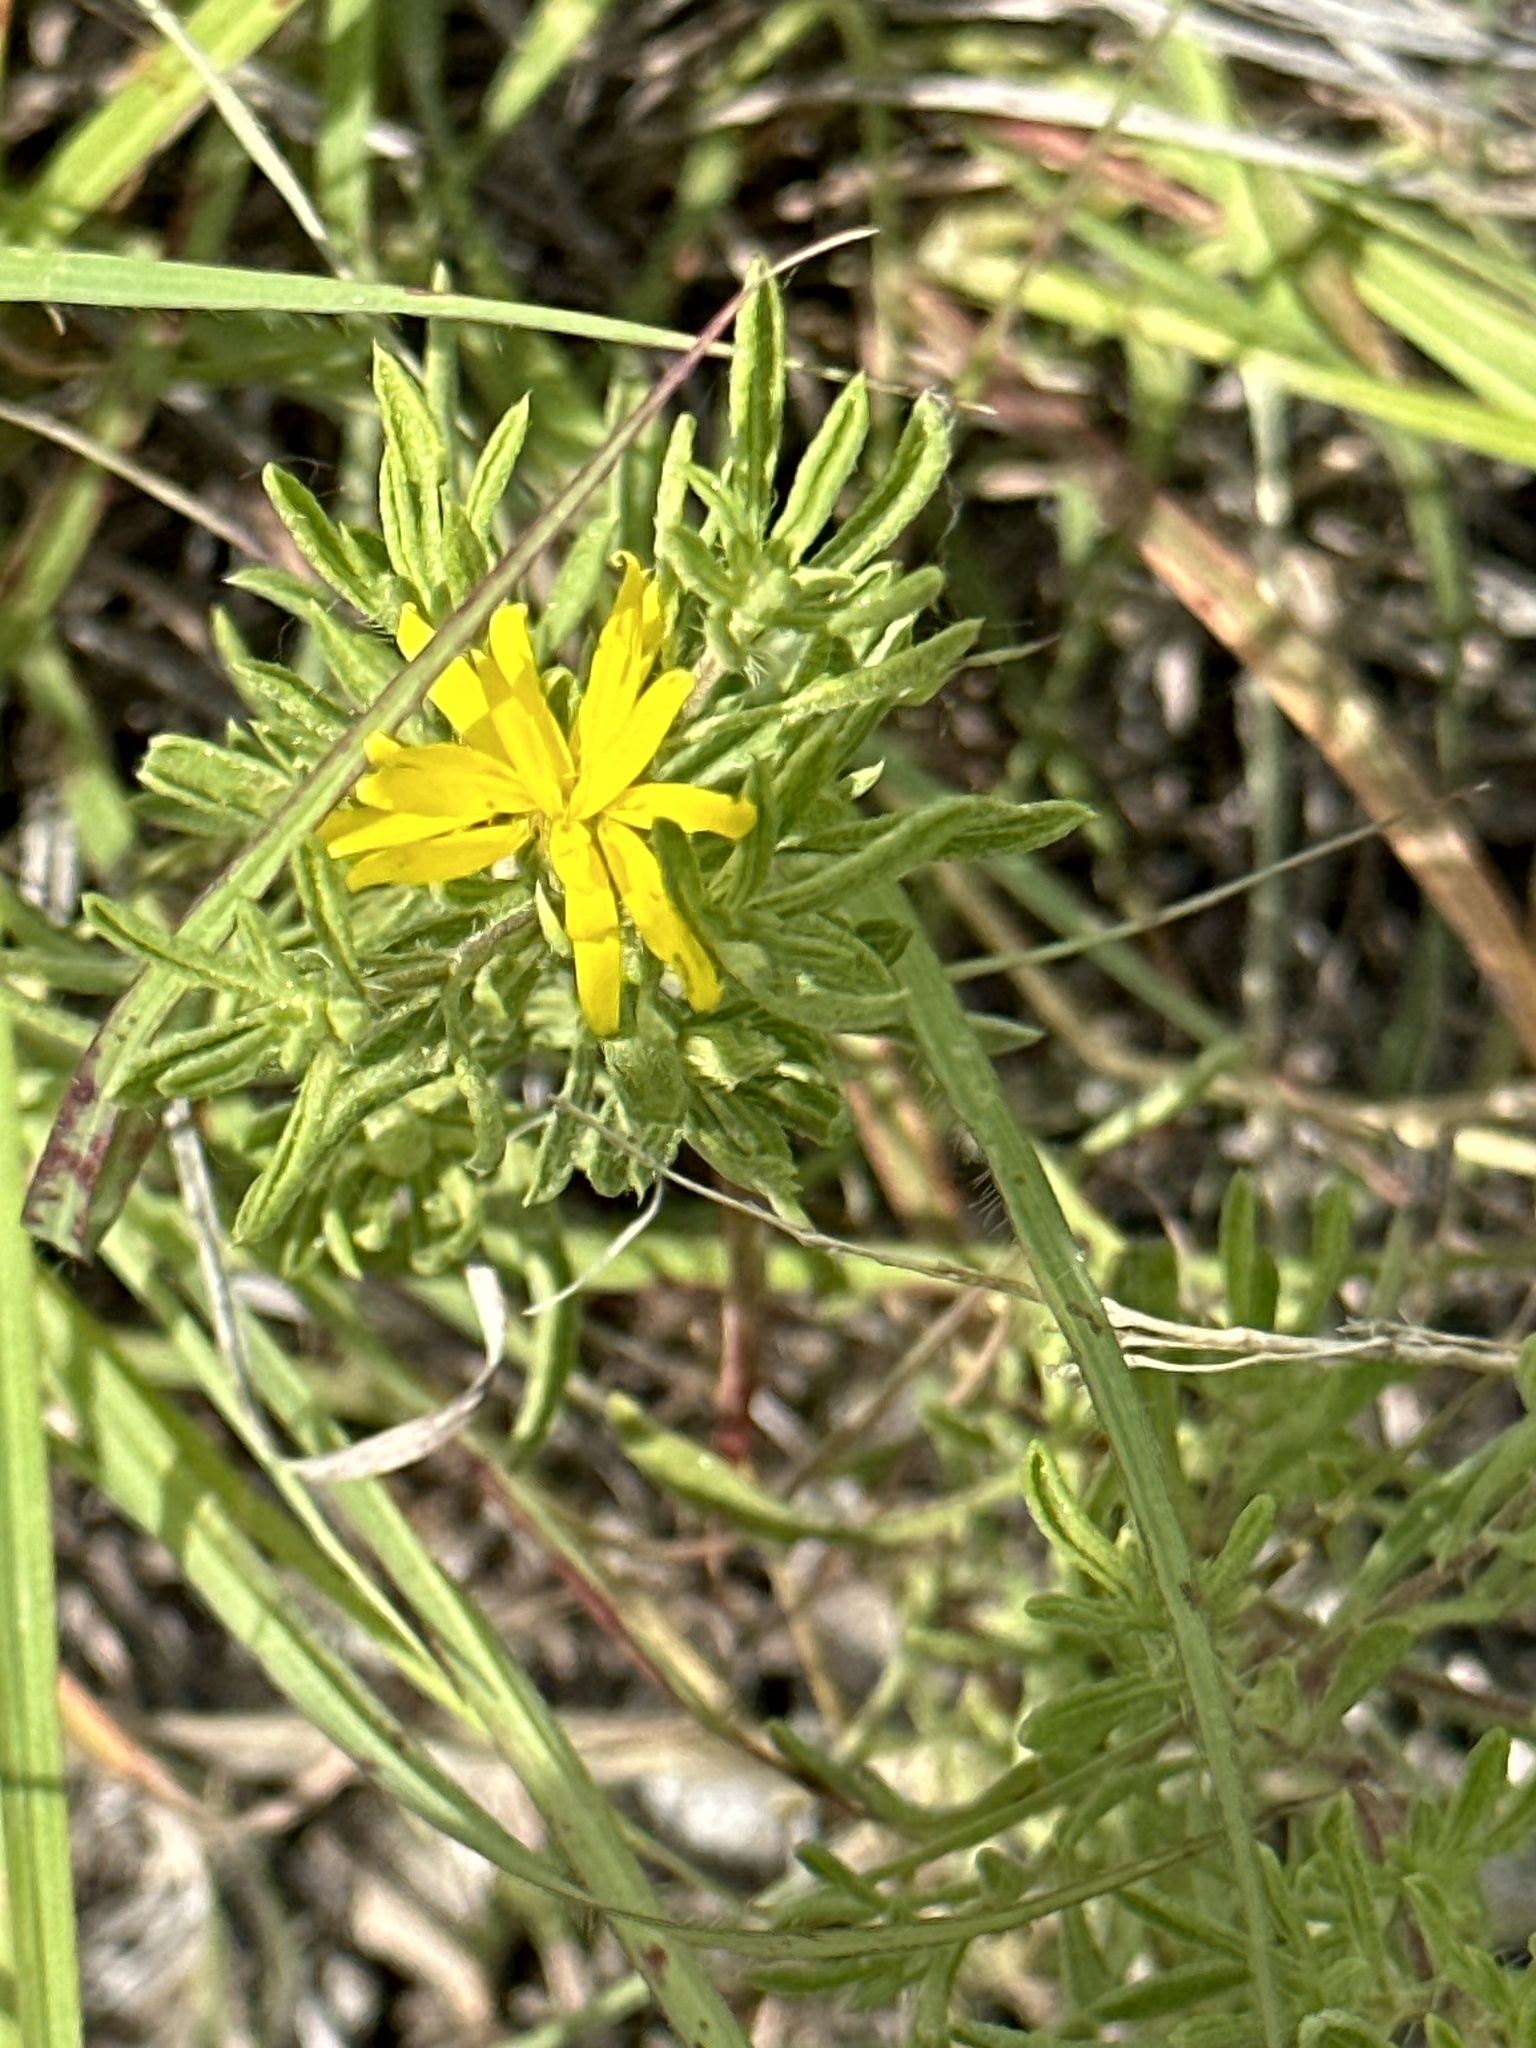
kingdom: Plantae
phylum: Tracheophyta
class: Magnoliopsida
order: Asterales
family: Asteraceae
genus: Heterotheca
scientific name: Heterotheca stenophylla
